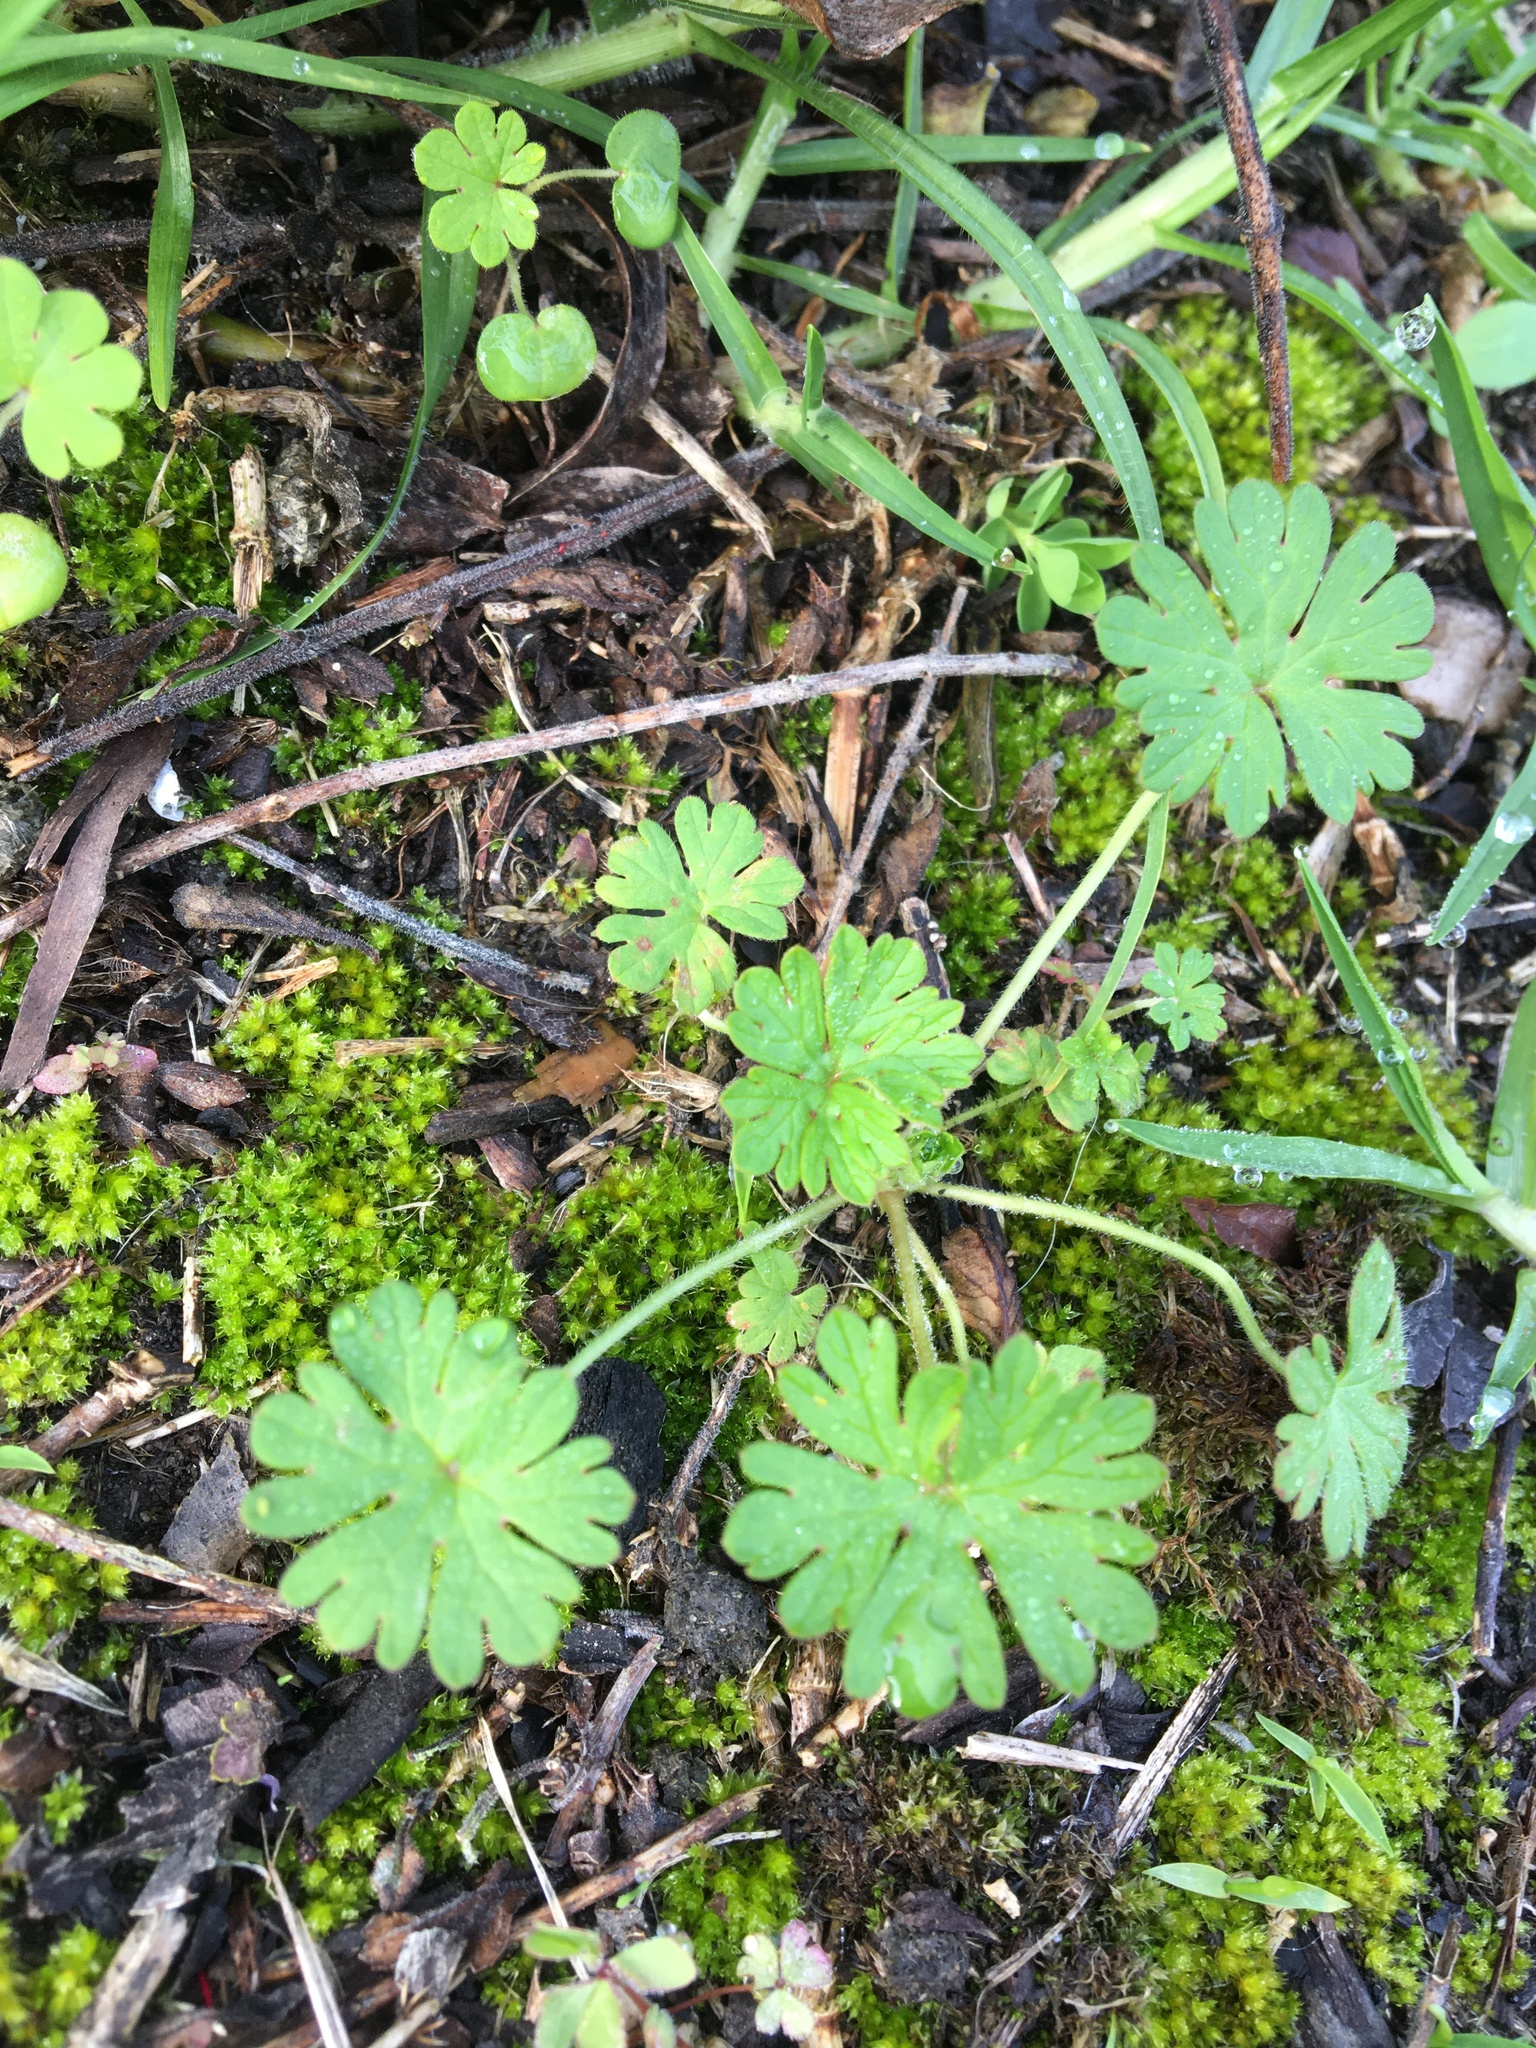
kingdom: Plantae
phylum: Tracheophyta
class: Magnoliopsida
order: Geraniales
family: Geraniaceae
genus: Geranium
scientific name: Geranium
